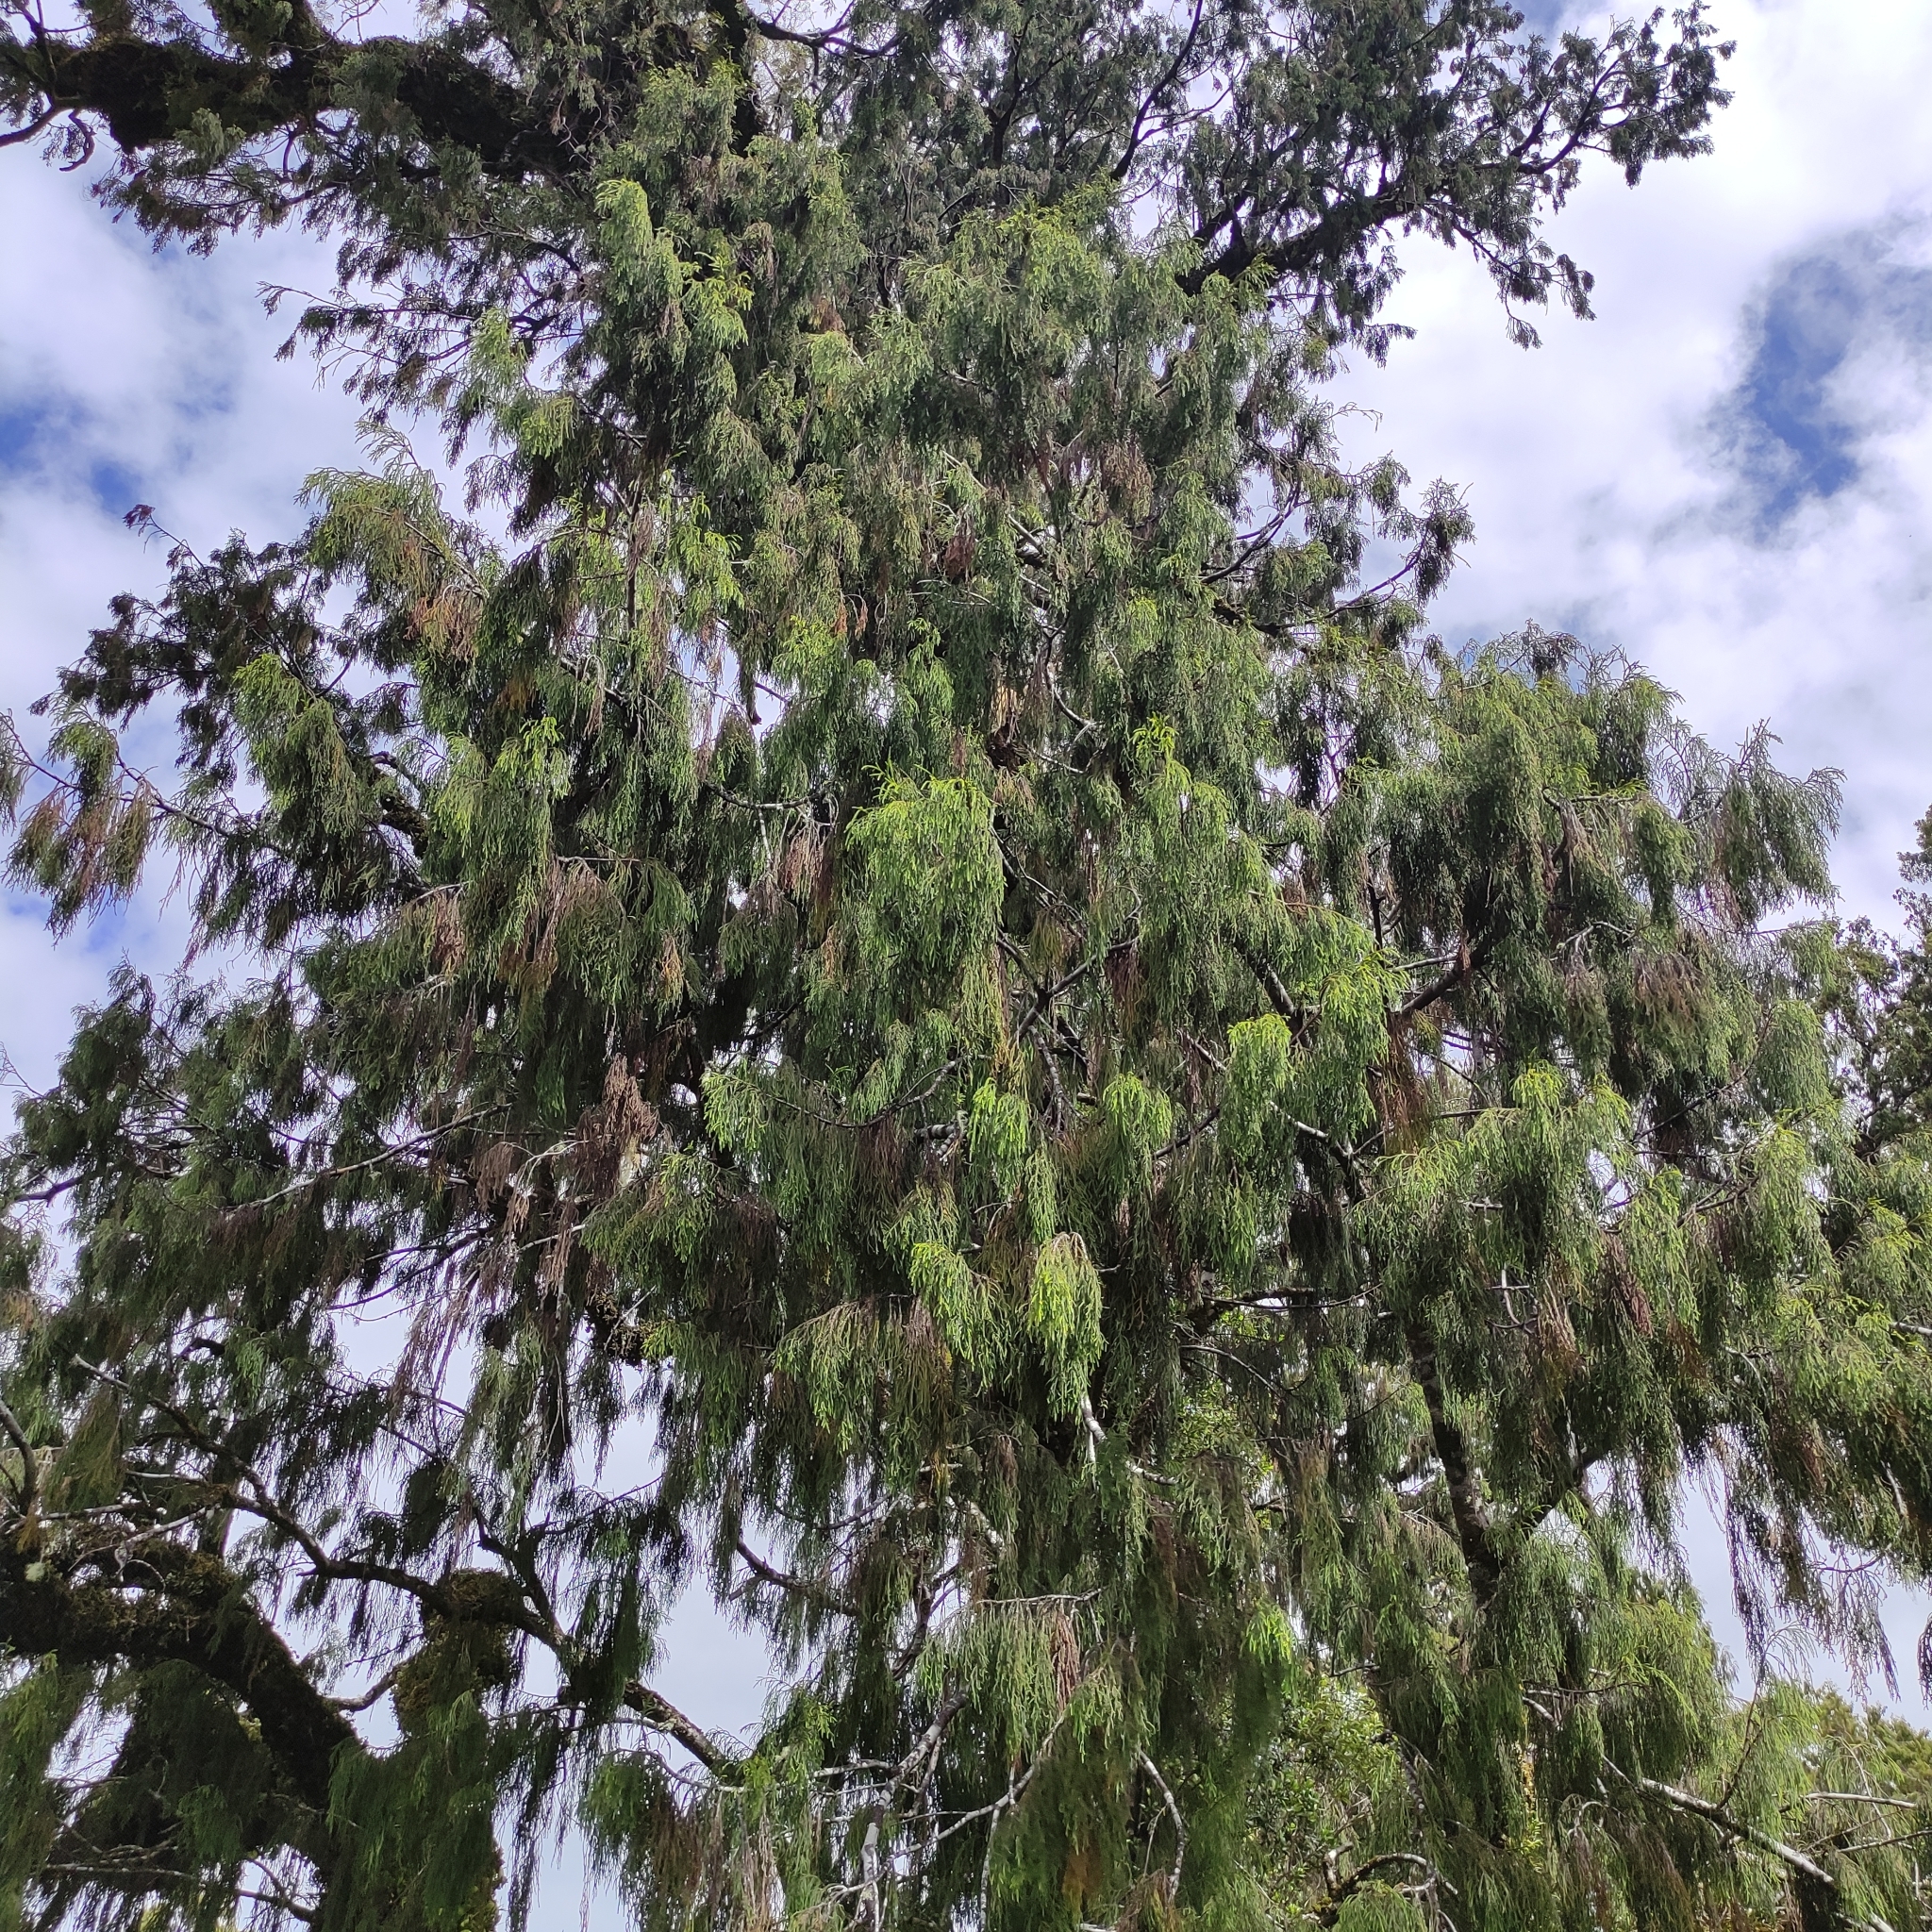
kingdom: Plantae
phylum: Tracheophyta
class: Pinopsida
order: Pinales
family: Podocarpaceae
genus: Dacrydium
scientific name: Dacrydium cupressinum
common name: Red pine
